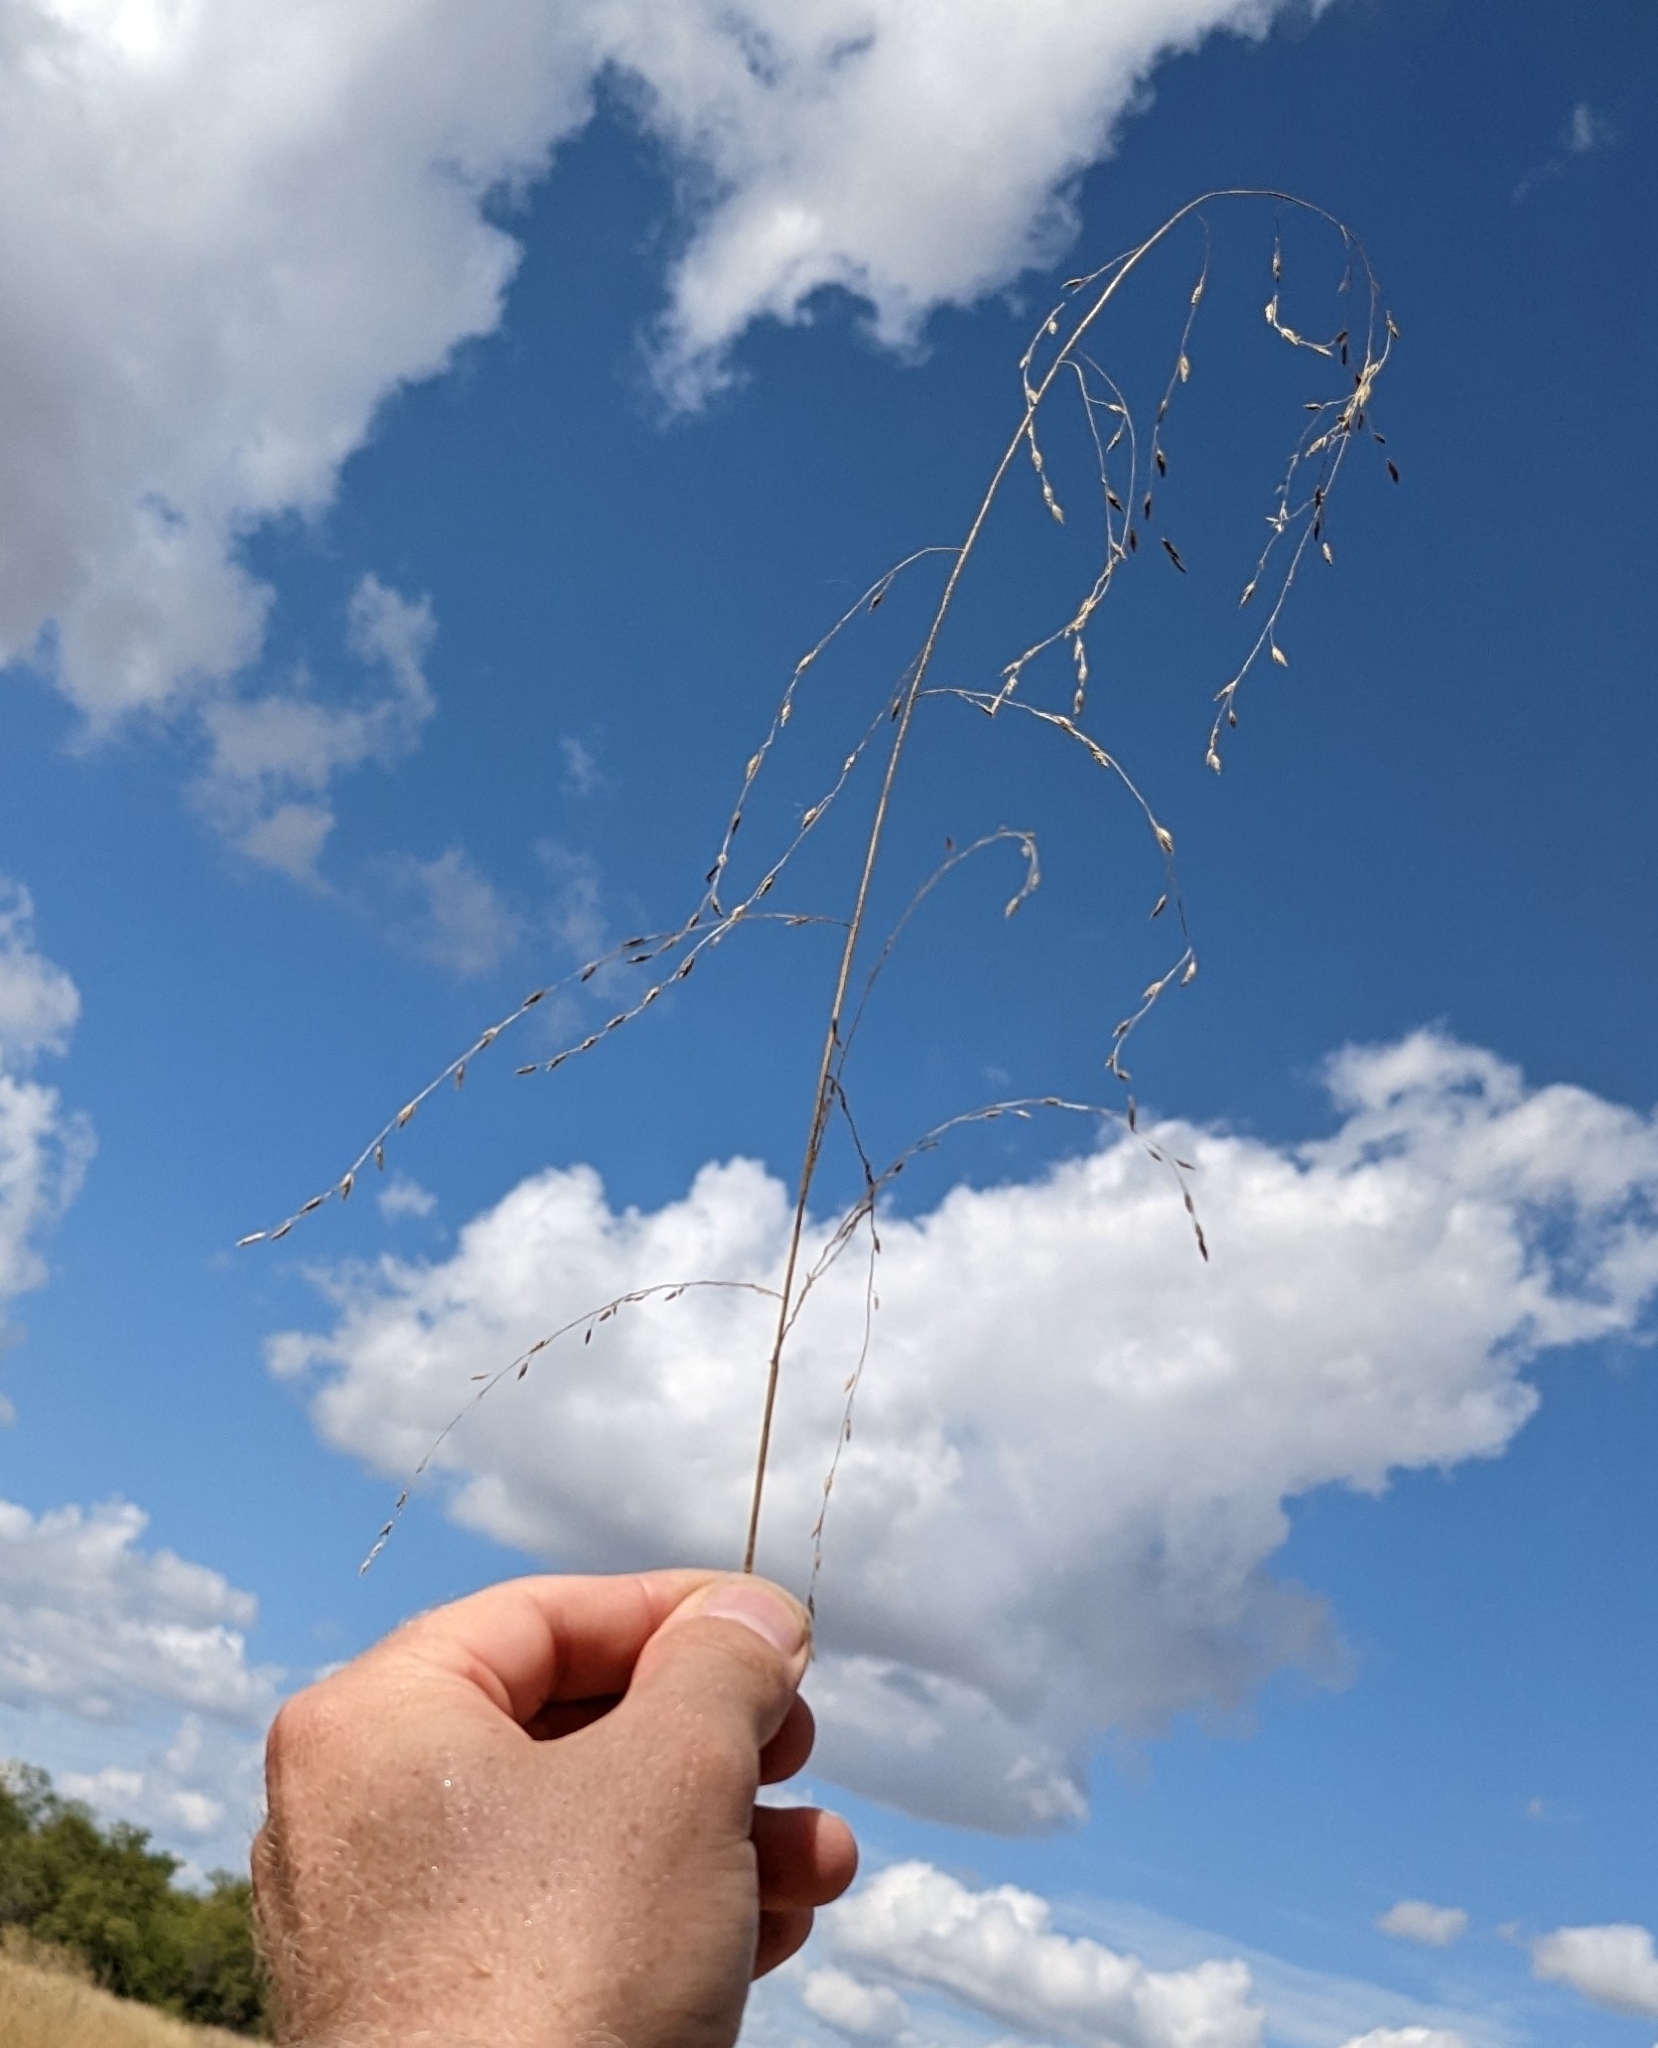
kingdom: Plantae
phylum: Tracheophyta
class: Liliopsida
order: Poales
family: Poaceae
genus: Triplasiella
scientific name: Triplasiella eragrostoides
